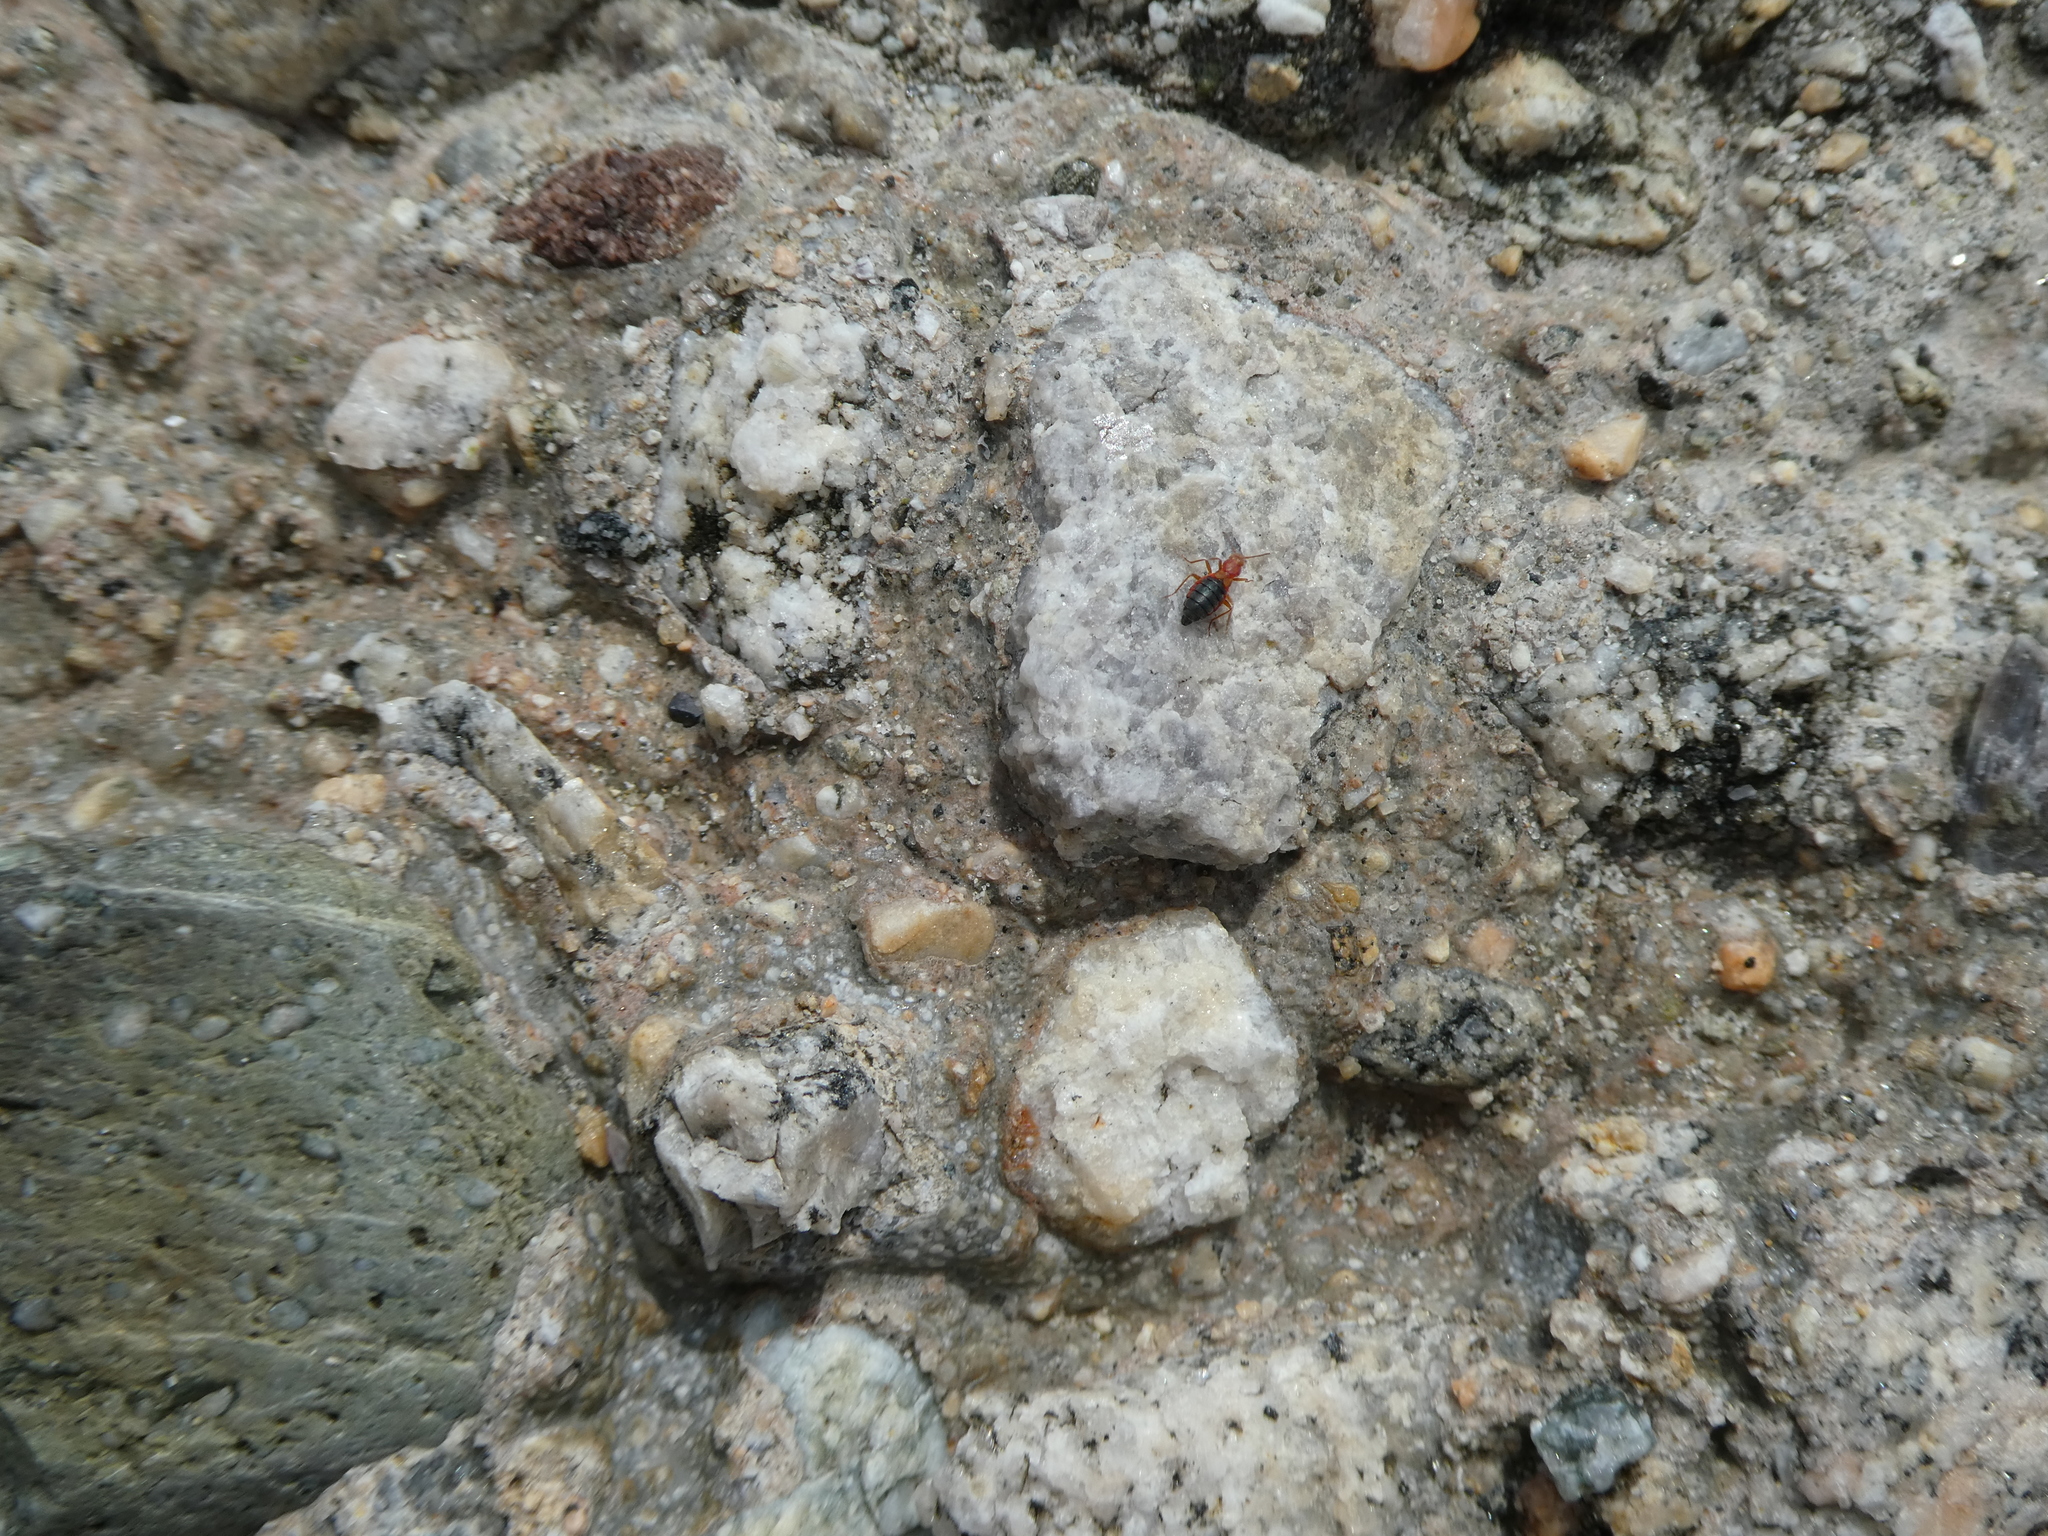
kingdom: Animalia
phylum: Arthropoda
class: Insecta
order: Coleoptera
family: Melyridae
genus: Endeodes
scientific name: Endeodes insularis
